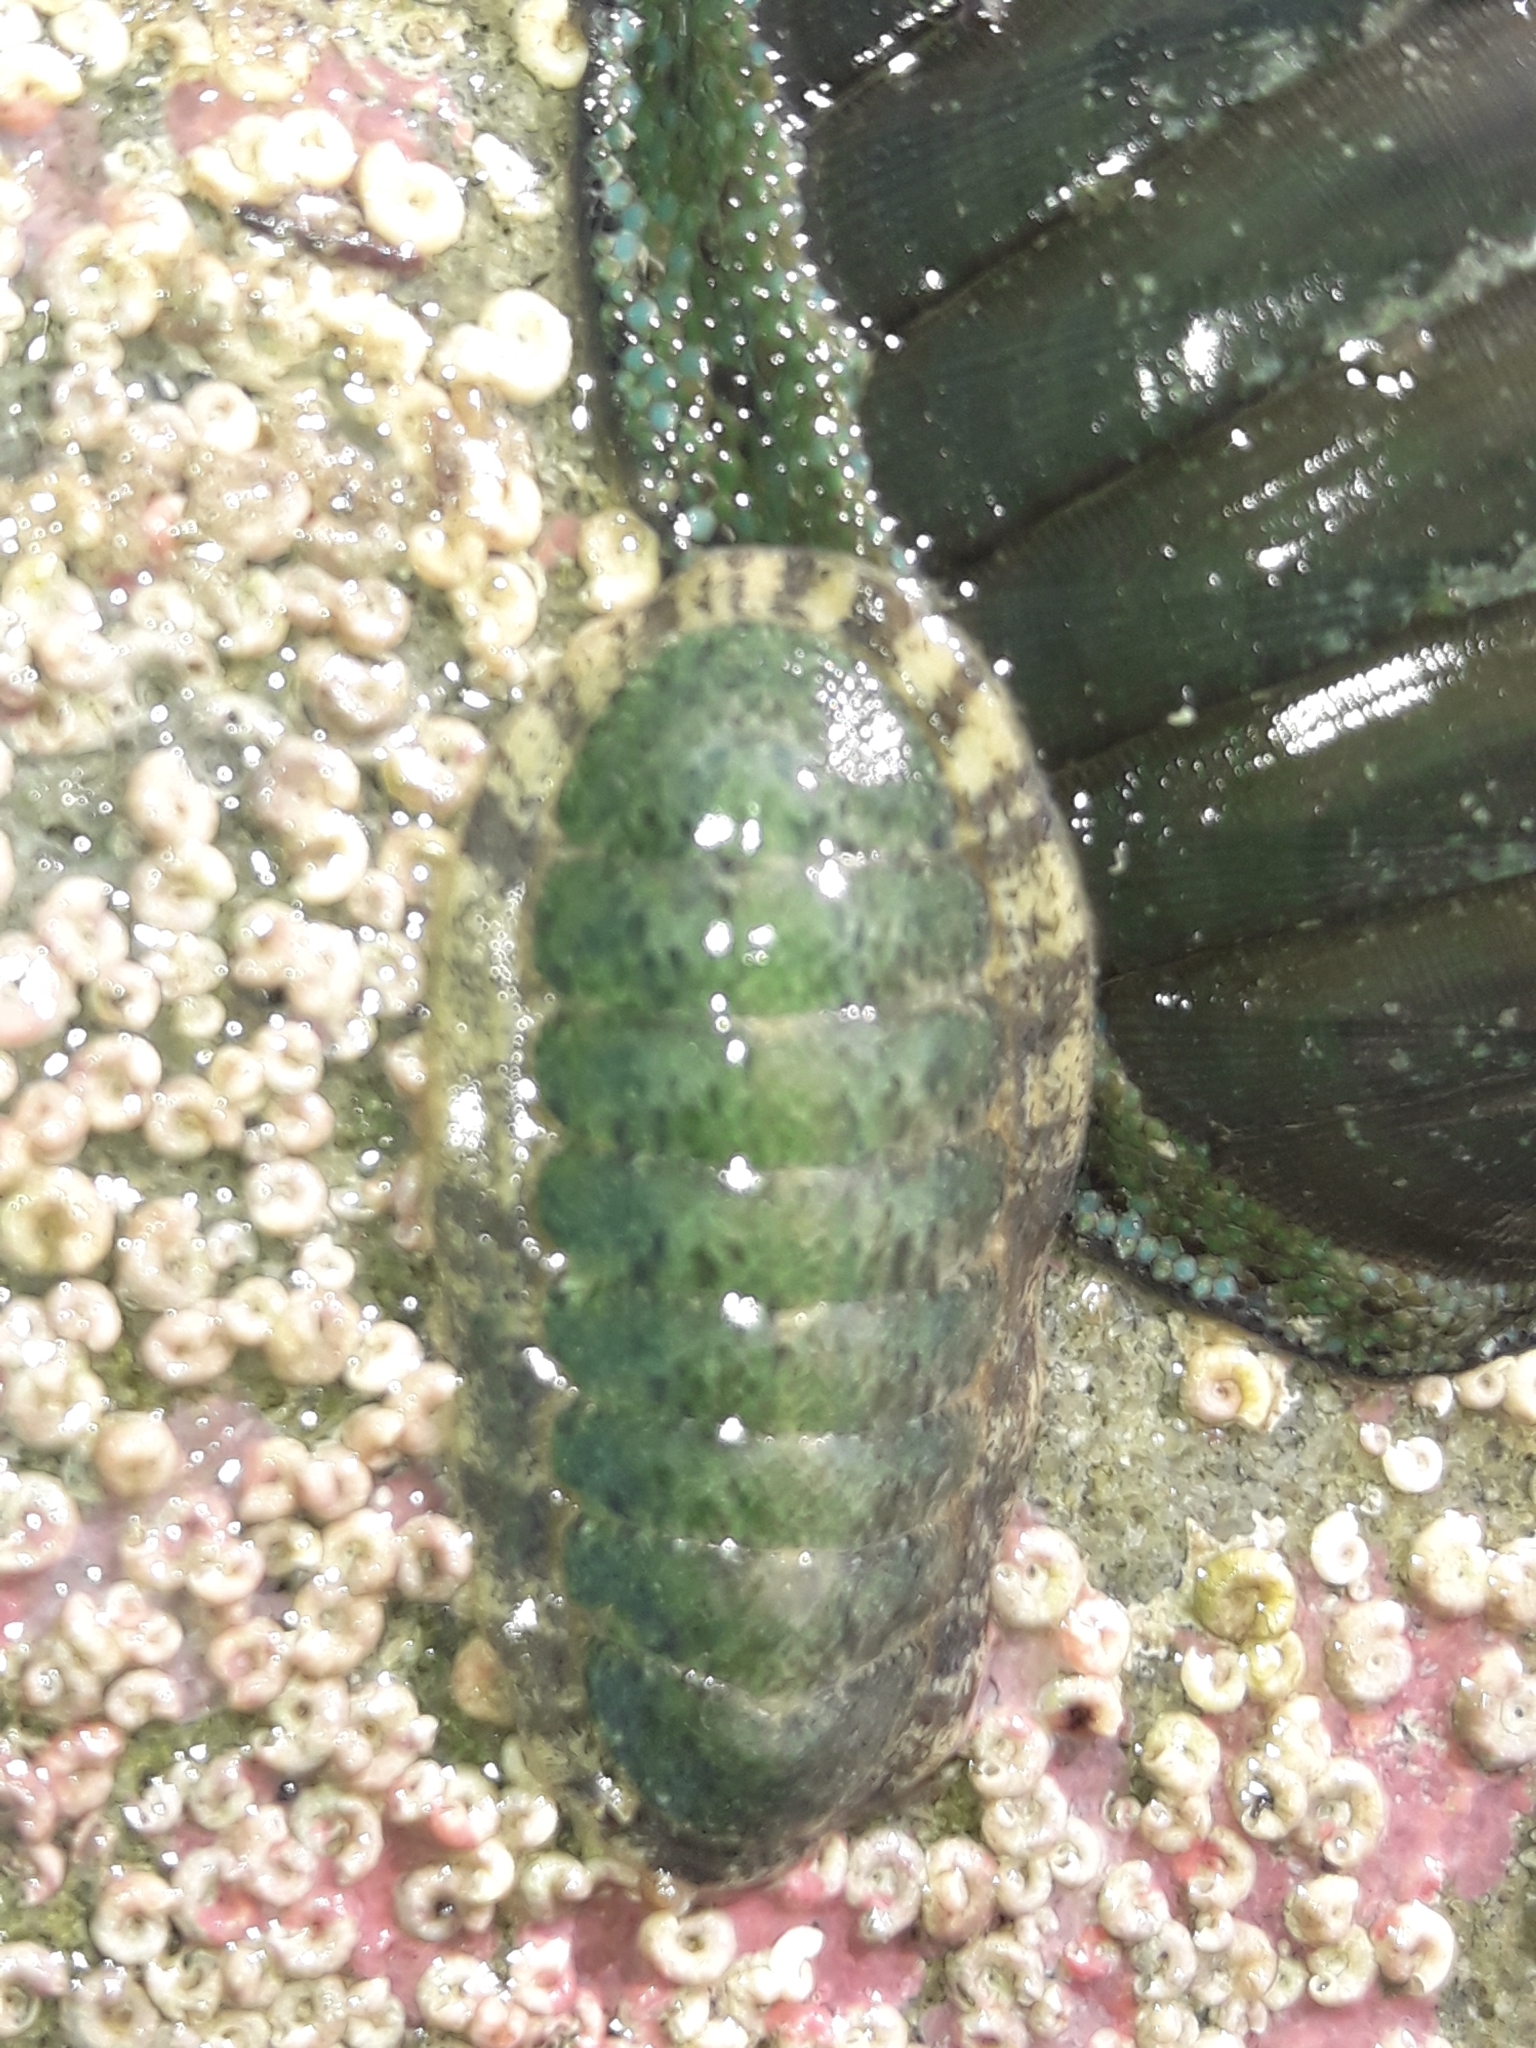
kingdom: Animalia
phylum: Mollusca
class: Polyplacophora
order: Chitonida
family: Ischnochitonidae
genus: Ischnochiton
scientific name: Ischnochiton maorianus
